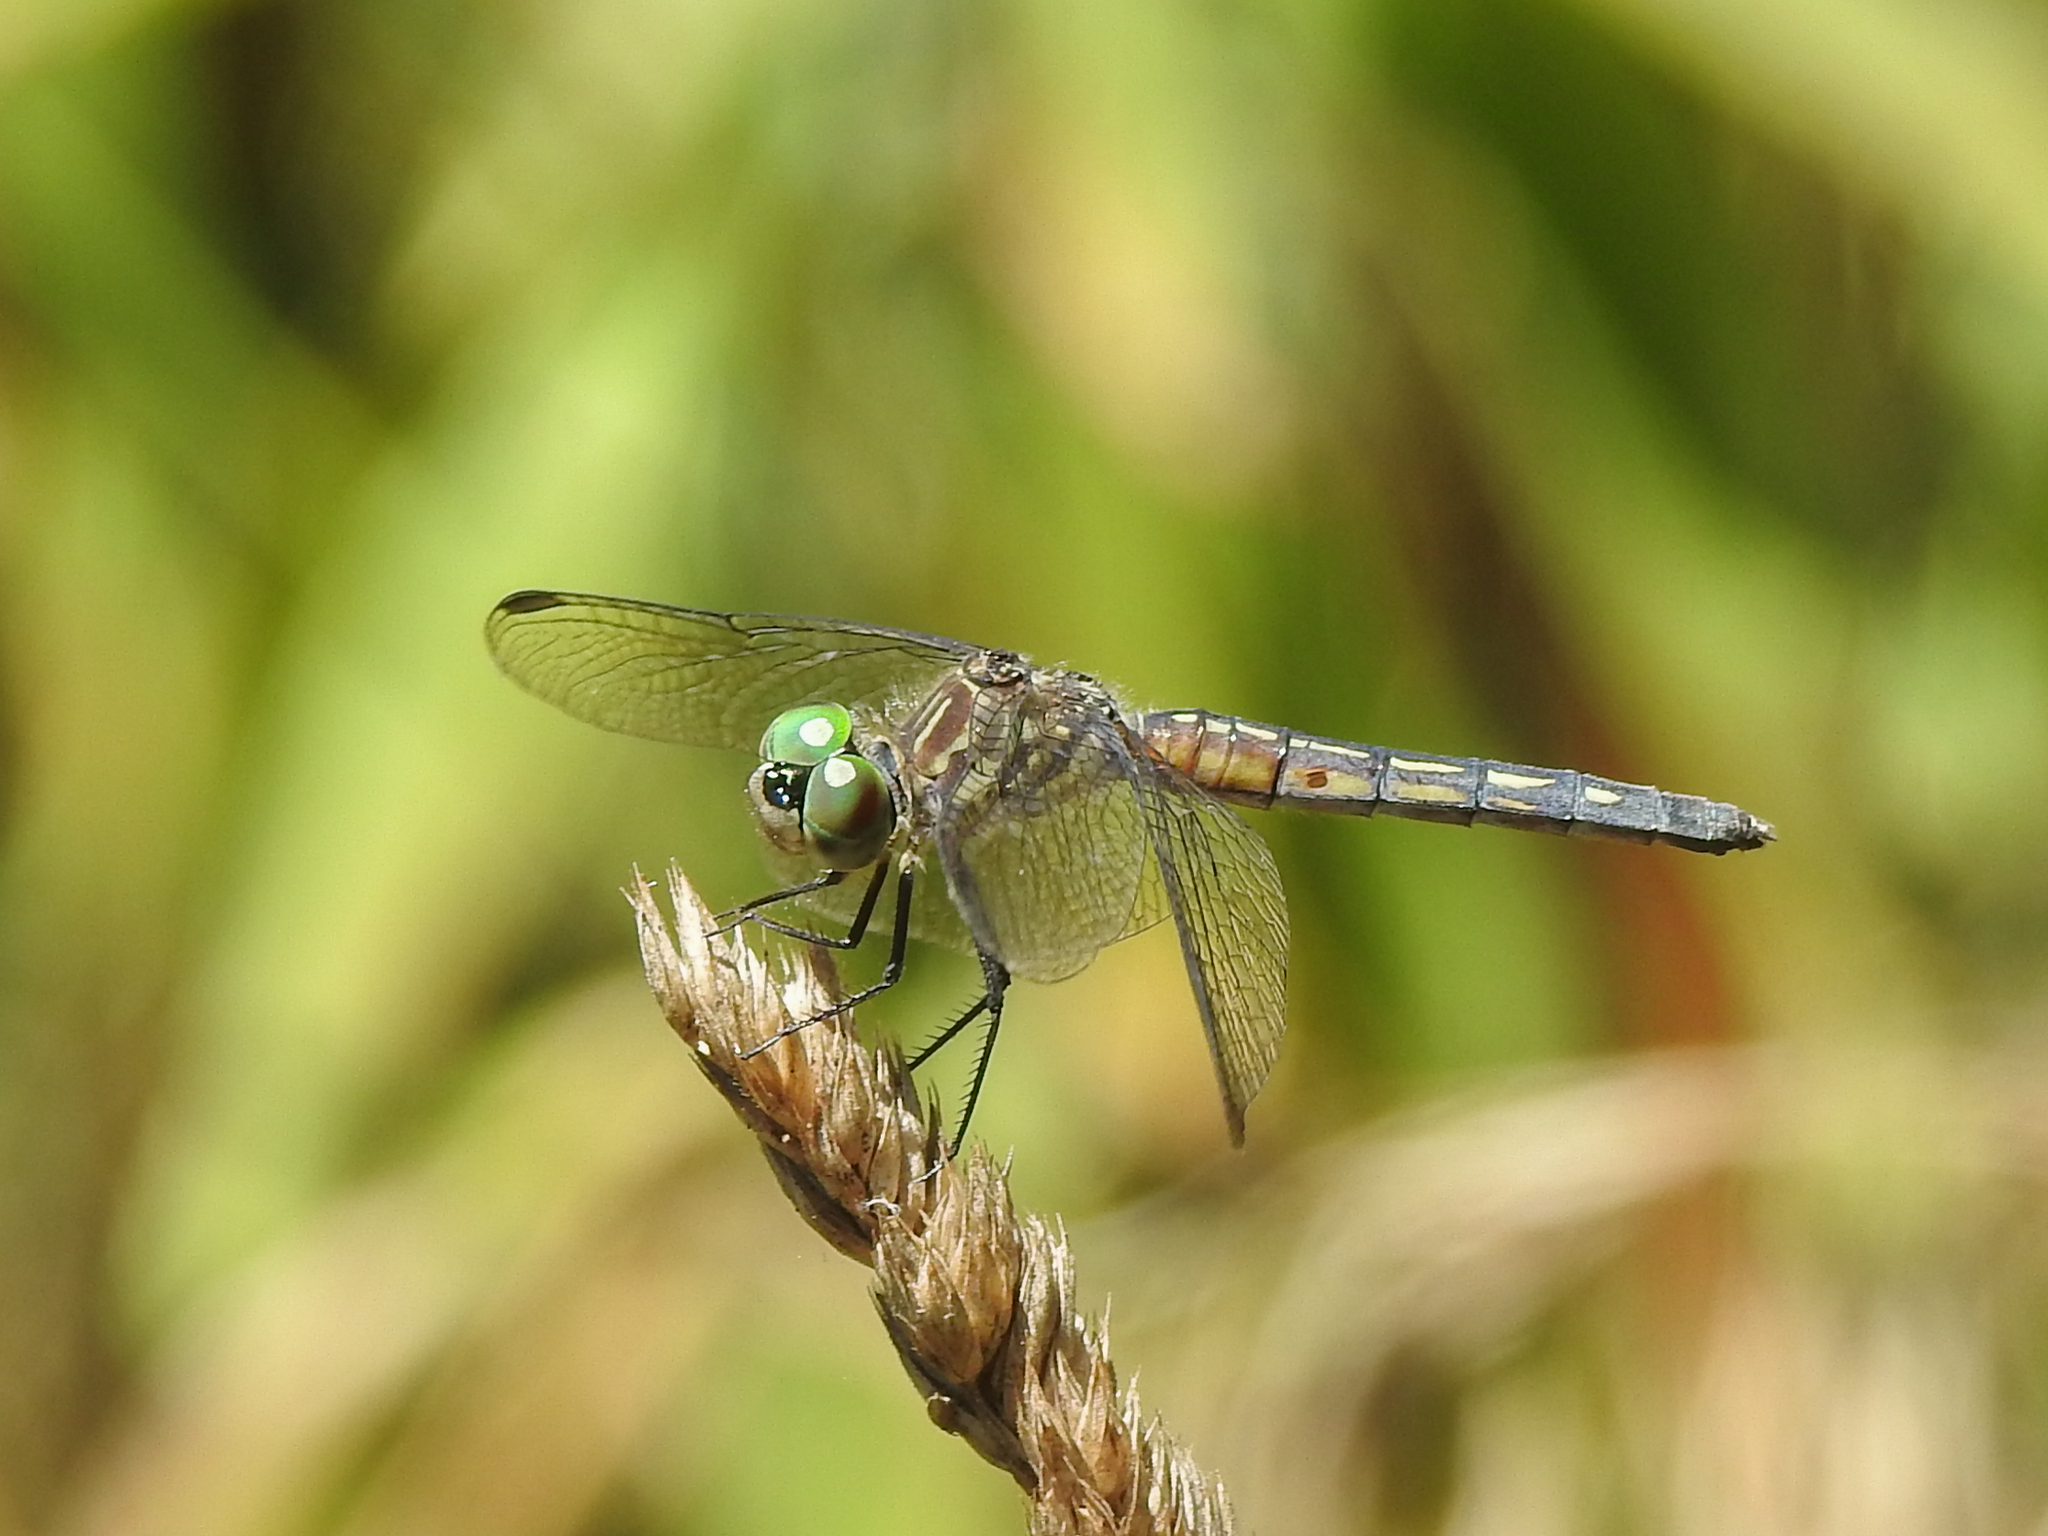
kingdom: Animalia
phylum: Arthropoda
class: Insecta
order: Odonata
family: Libellulidae
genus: Pachydiplax
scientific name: Pachydiplax longipennis
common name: Blue dasher
